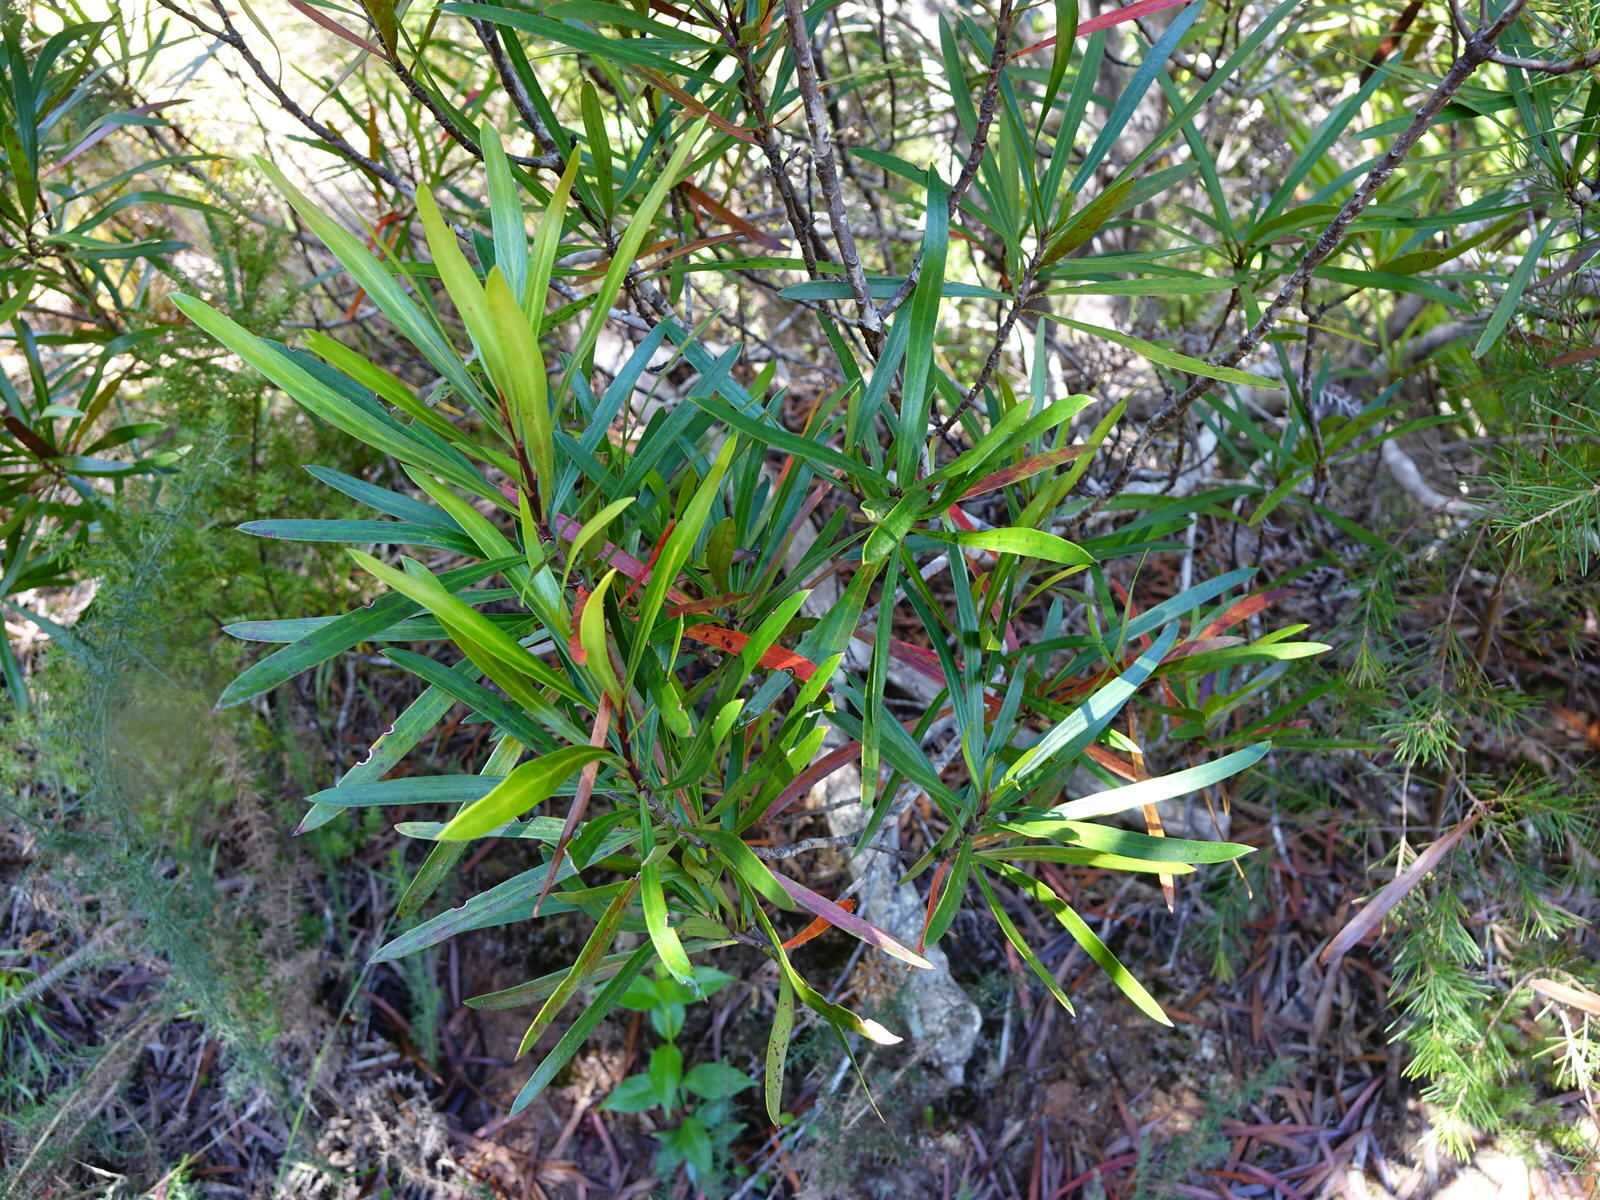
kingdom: Plantae
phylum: Tracheophyta
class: Magnoliopsida
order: Proteales
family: Proteaceae
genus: Toronia
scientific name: Toronia toru
